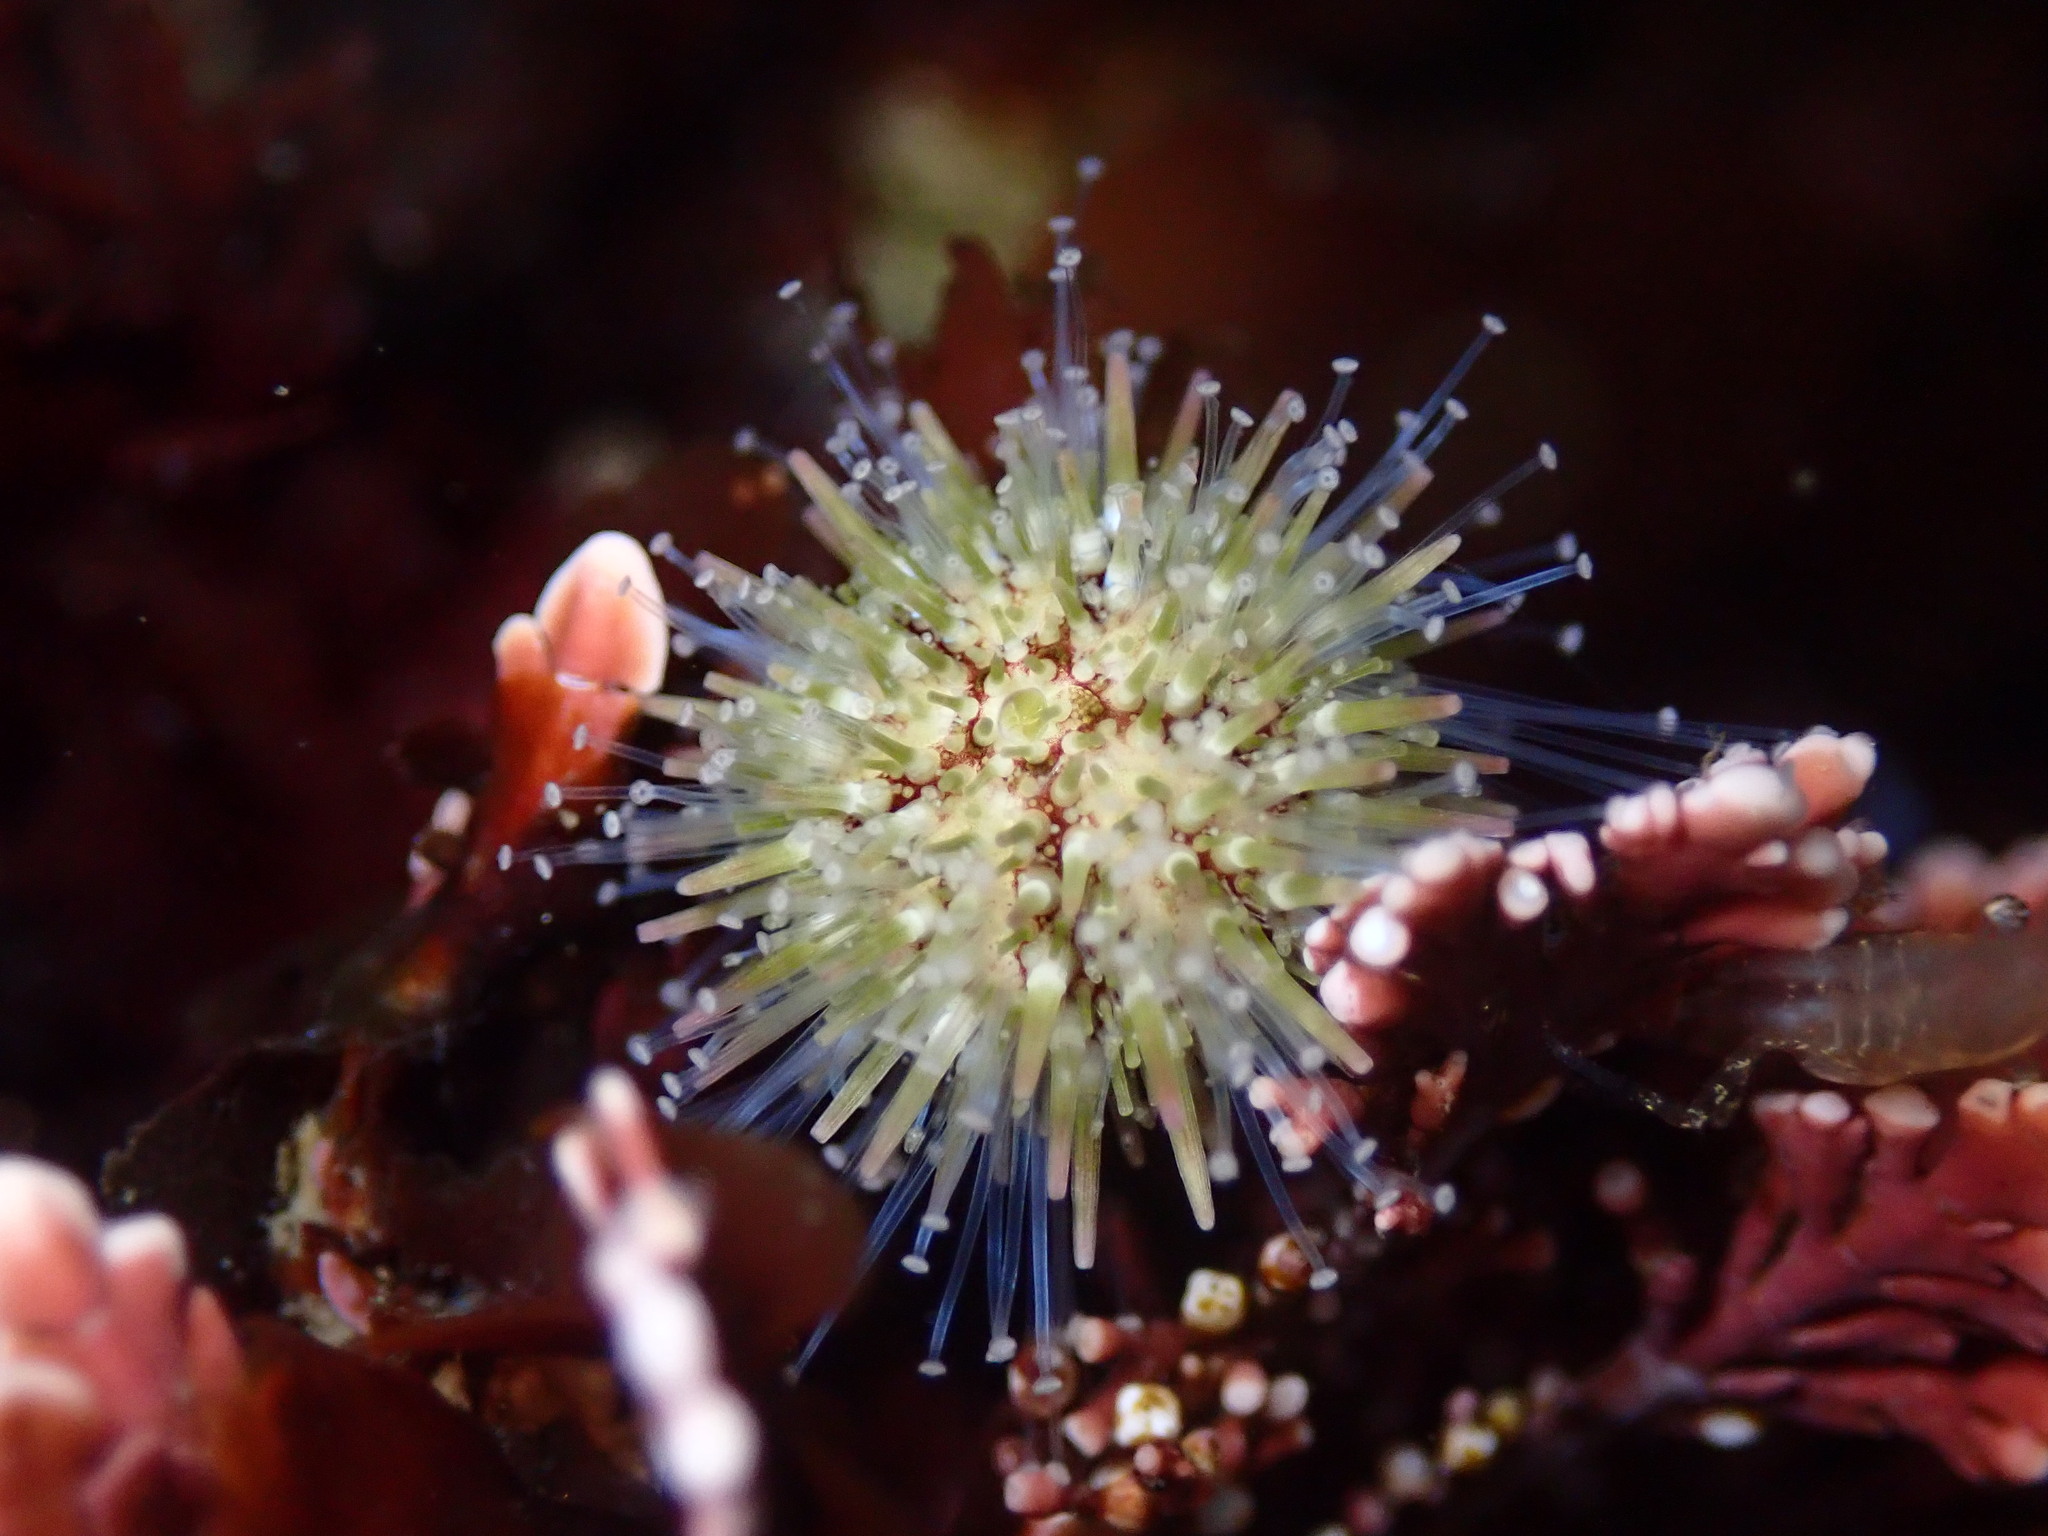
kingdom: Animalia
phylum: Echinodermata
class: Echinoidea
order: Camarodonta
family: Strongylocentrotidae
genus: Strongylocentrotus
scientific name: Strongylocentrotus purpuratus
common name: Purple sea urchin
